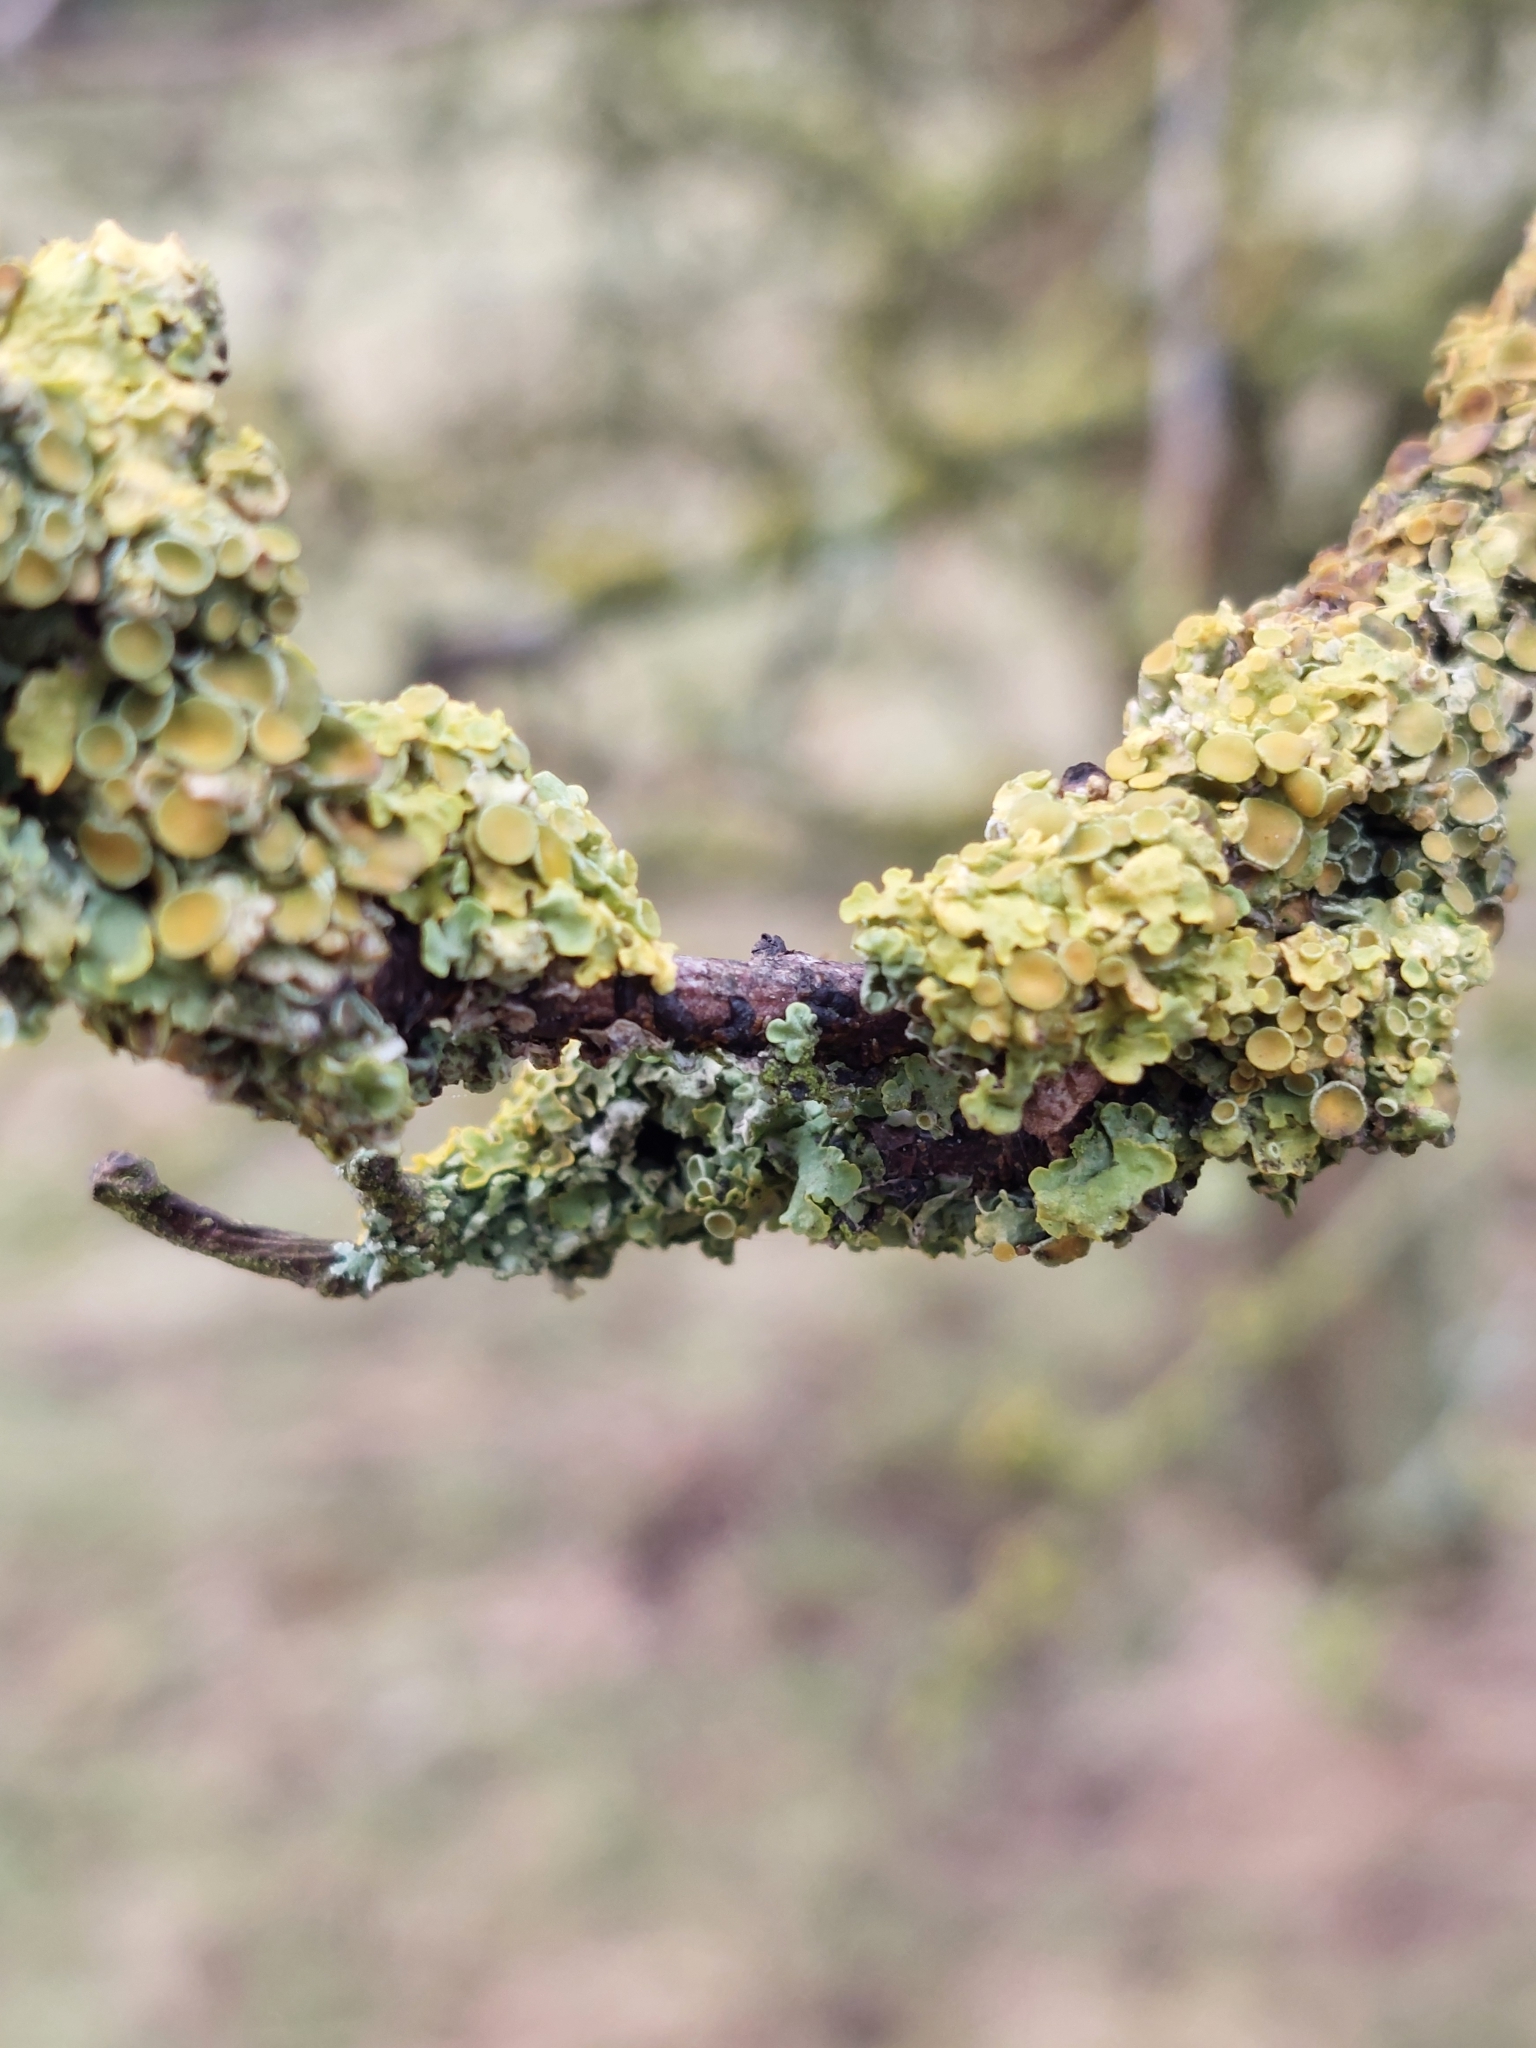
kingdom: Fungi
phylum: Ascomycota
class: Lecanoromycetes
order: Teloschistales
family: Teloschistaceae
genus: Xanthoria
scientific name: Xanthoria parietina
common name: Common orange lichen
